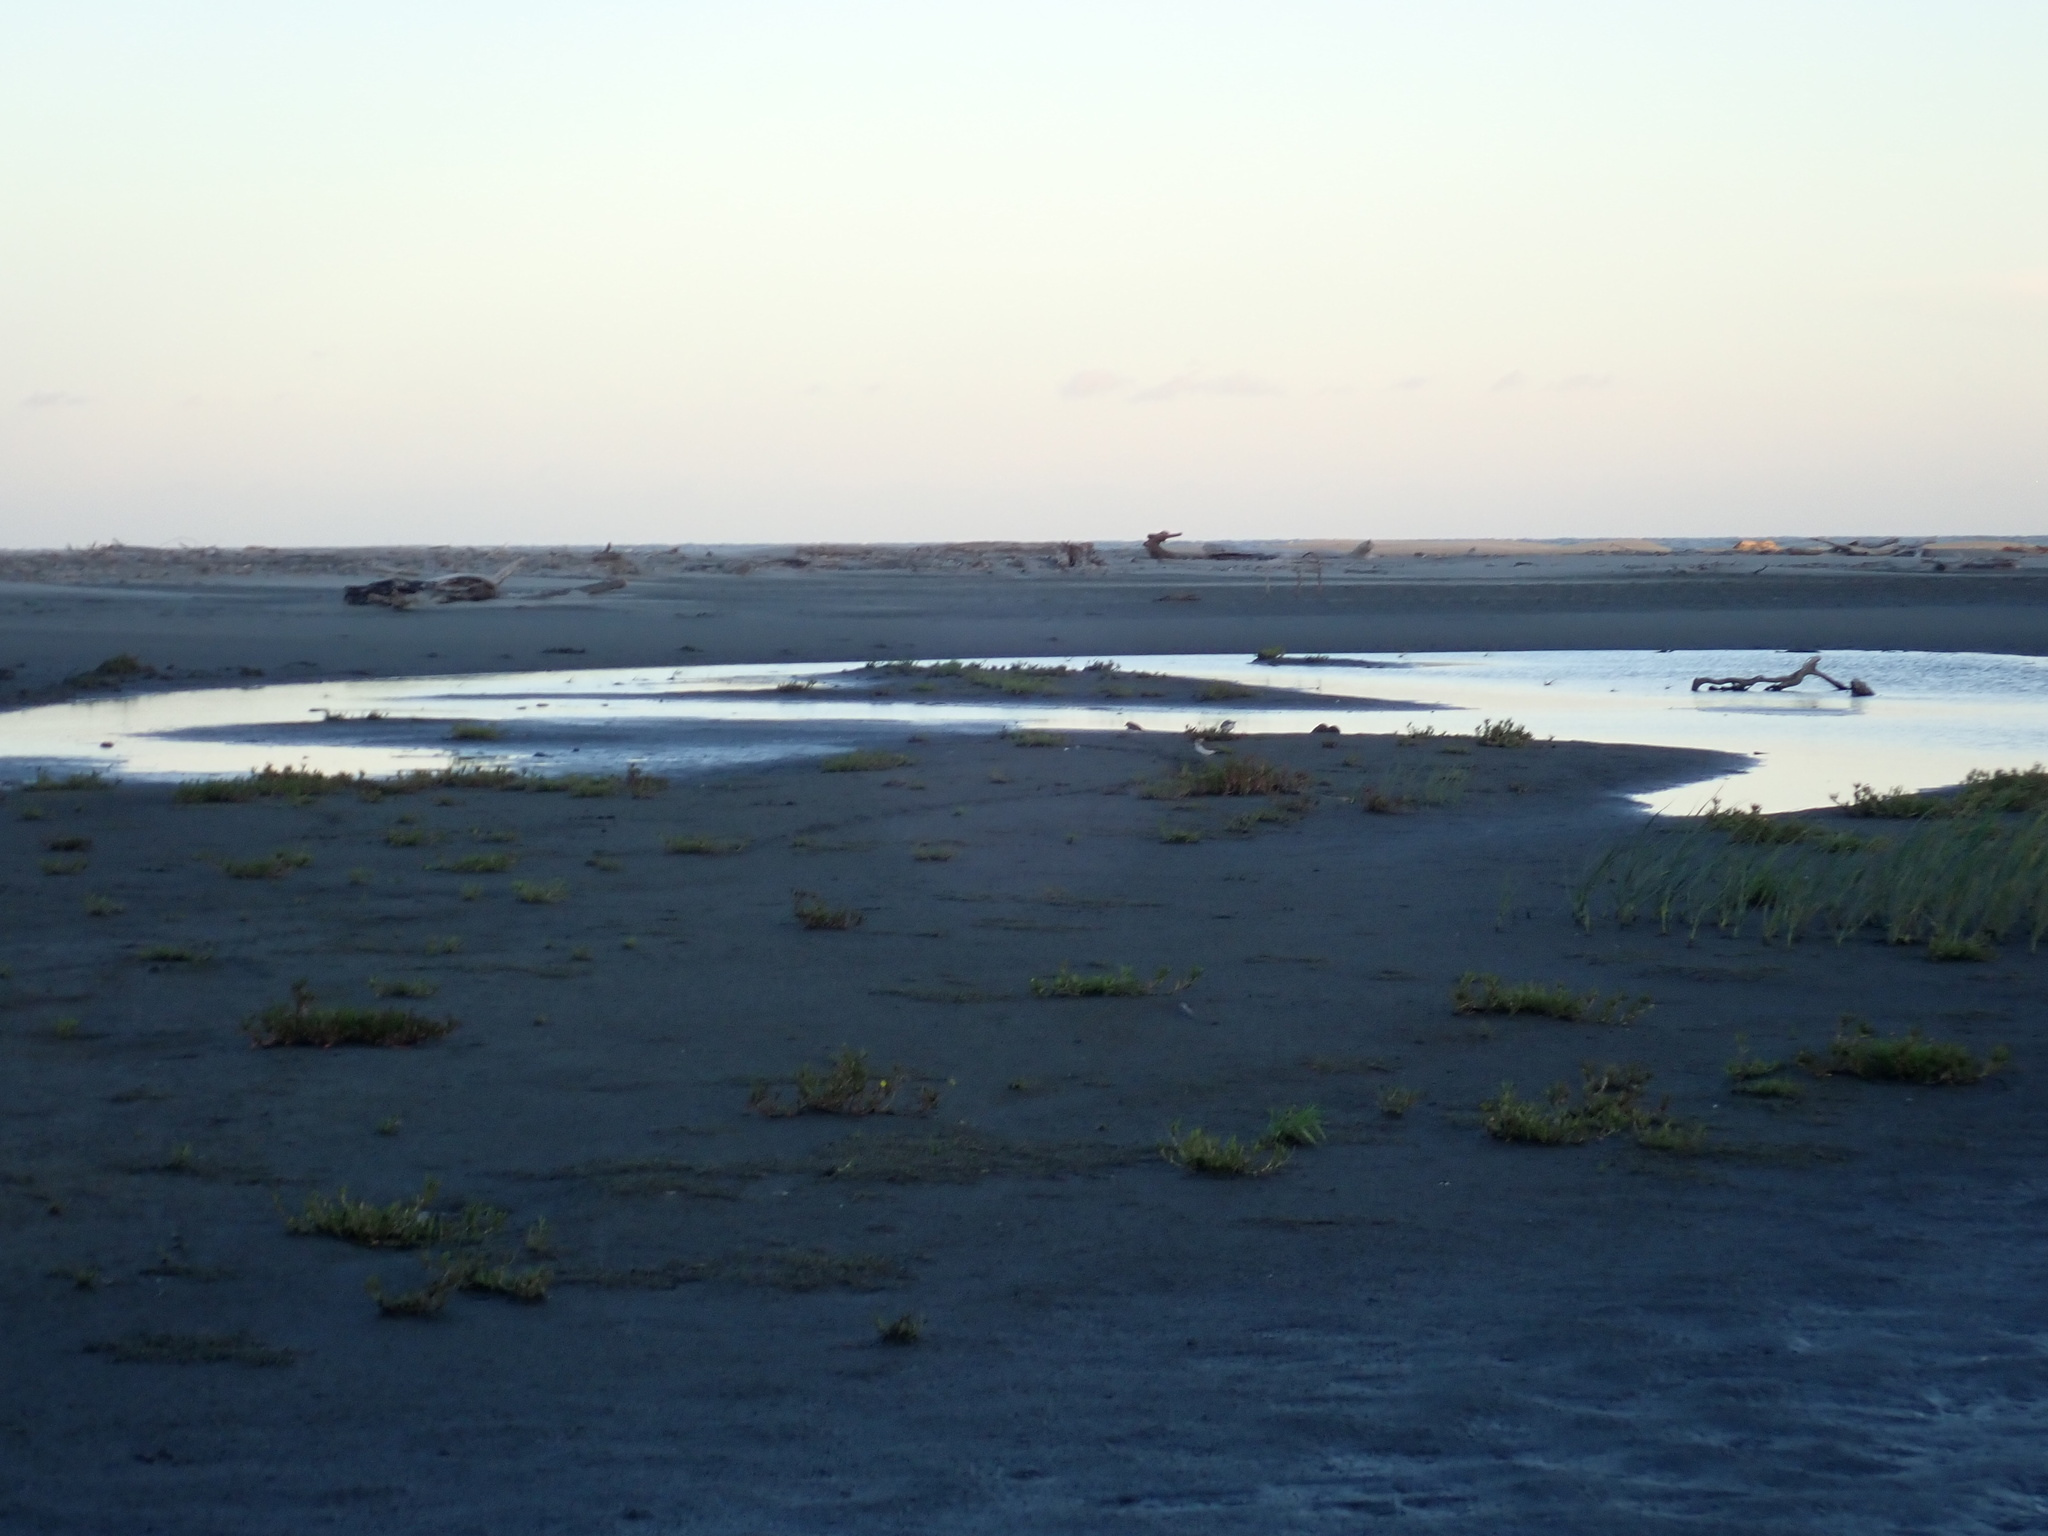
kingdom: Animalia
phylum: Chordata
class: Aves
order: Charadriiformes
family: Charadriidae
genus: Anarhynchus
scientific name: Anarhynchus
